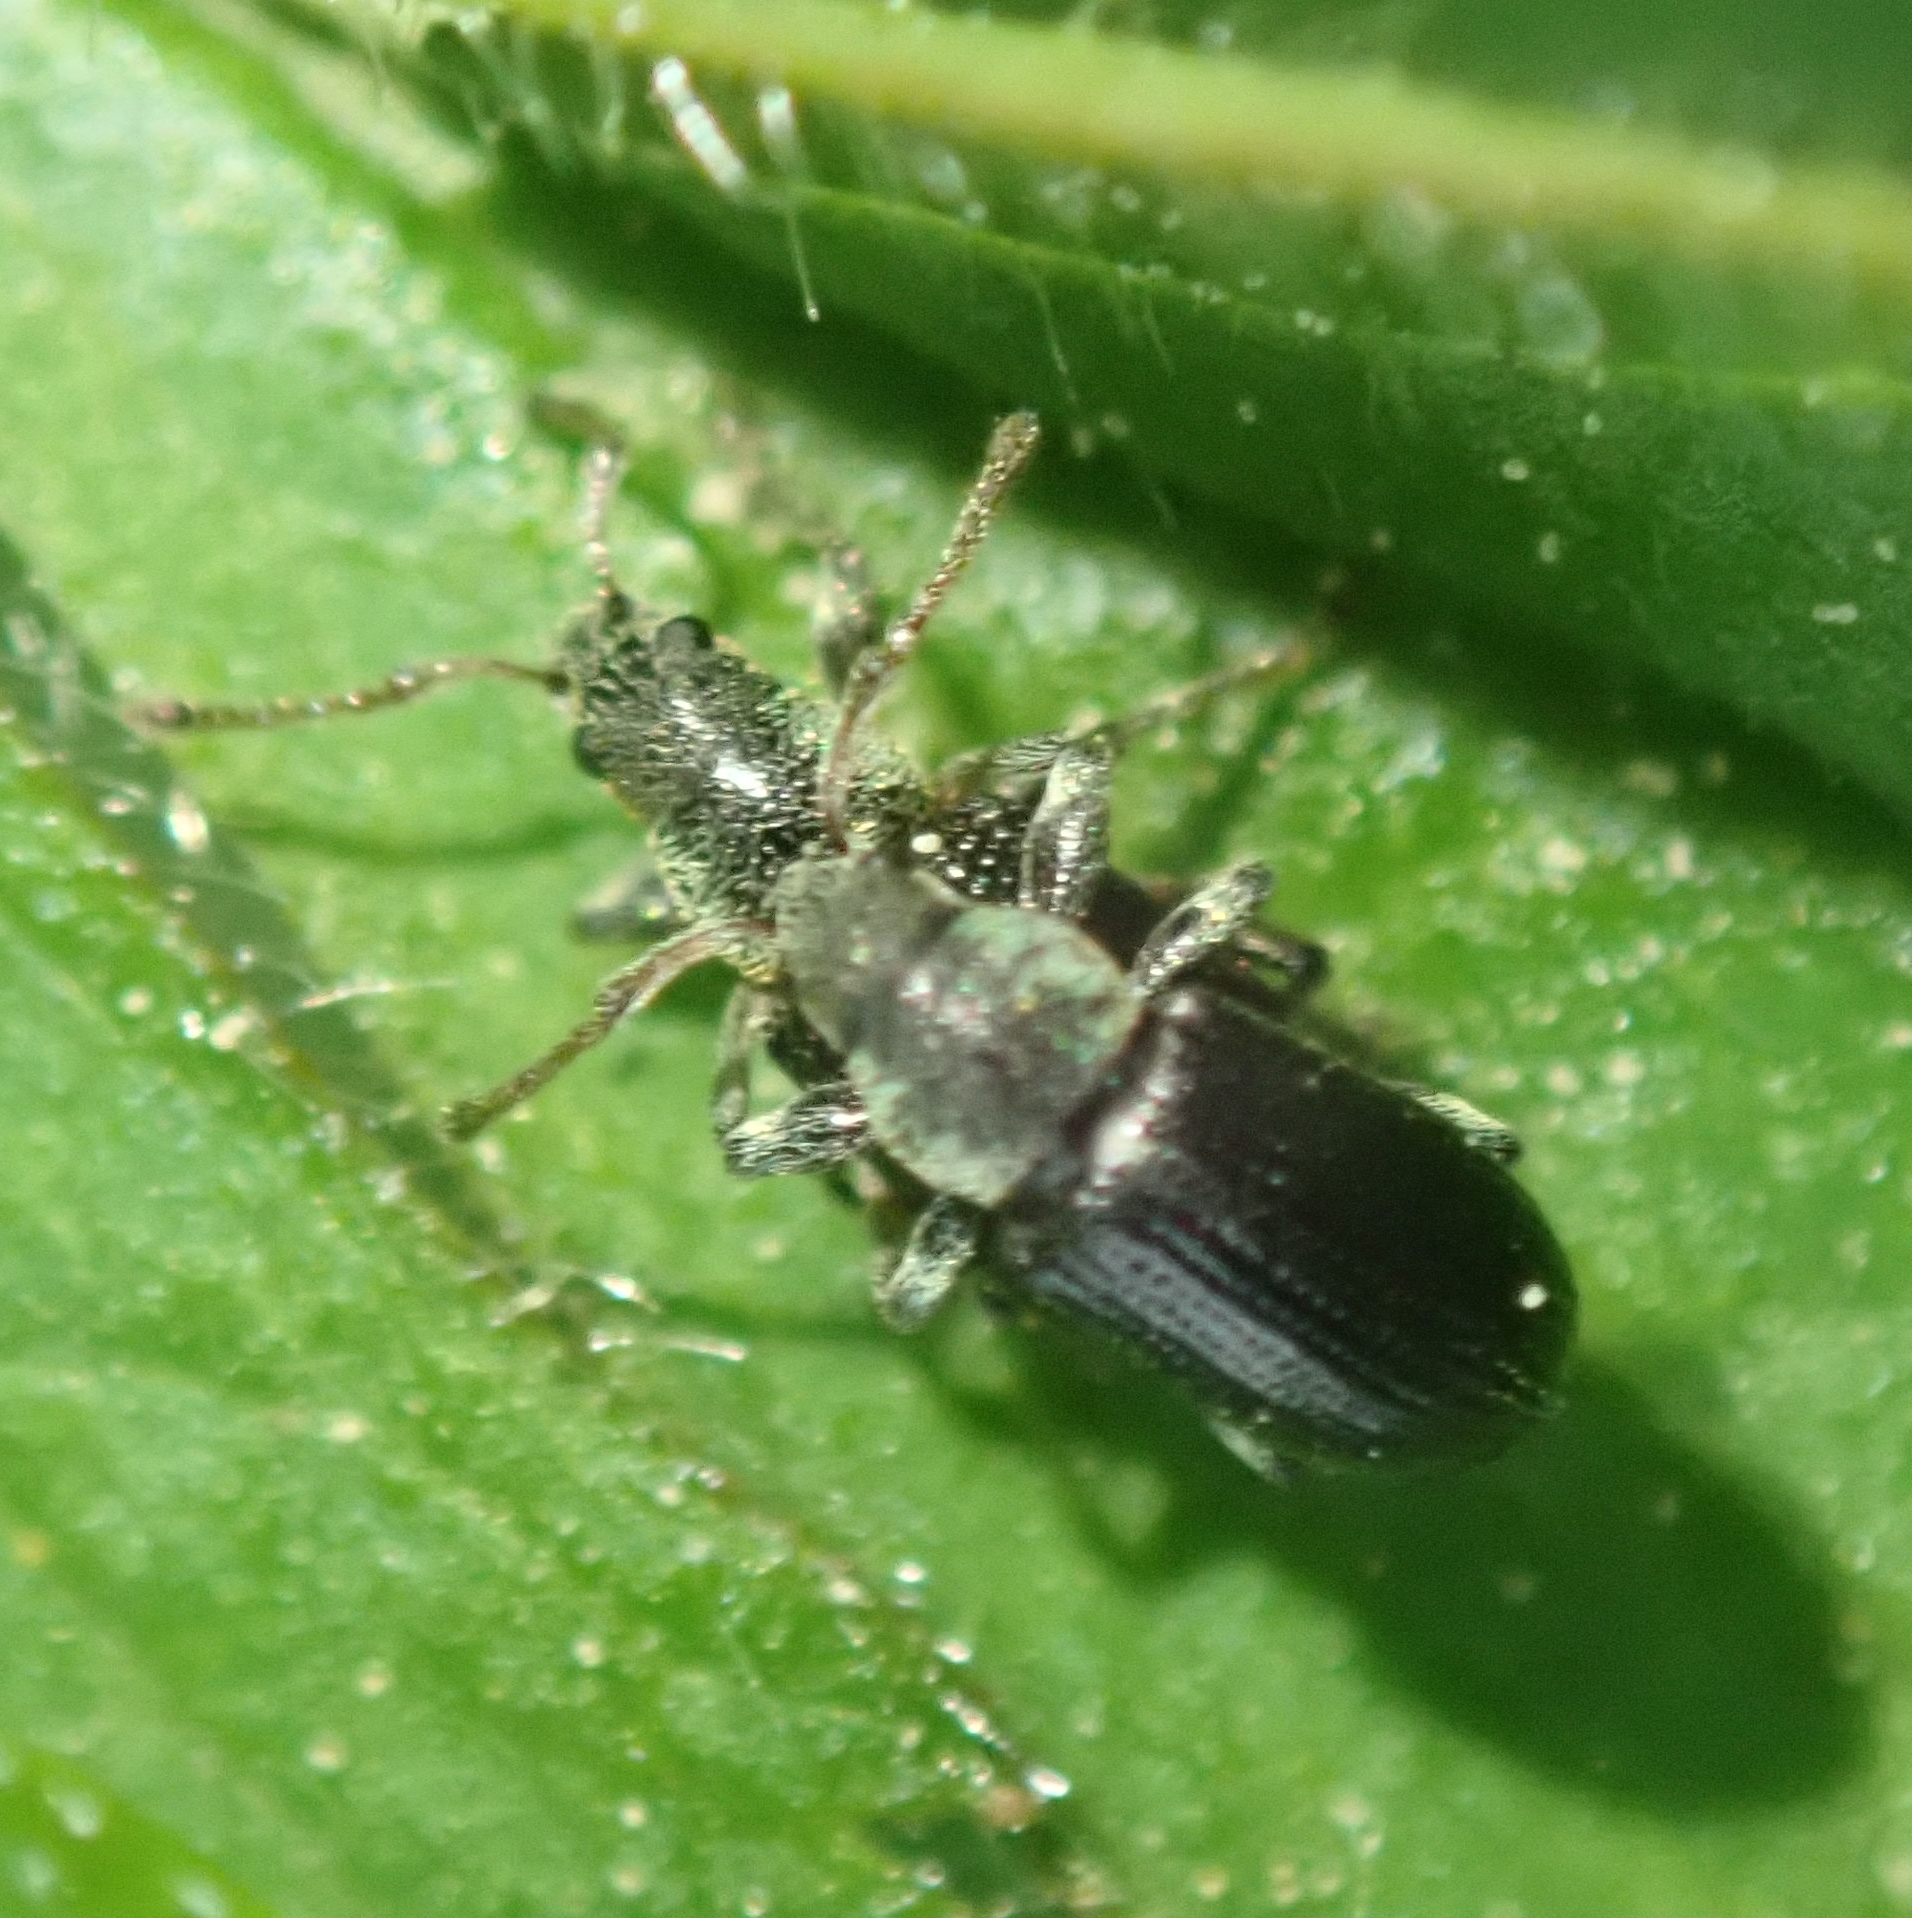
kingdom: Animalia
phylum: Arthropoda
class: Insecta
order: Coleoptera
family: Curculionidae
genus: Phyllobius
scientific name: Phyllobius viridicollis
